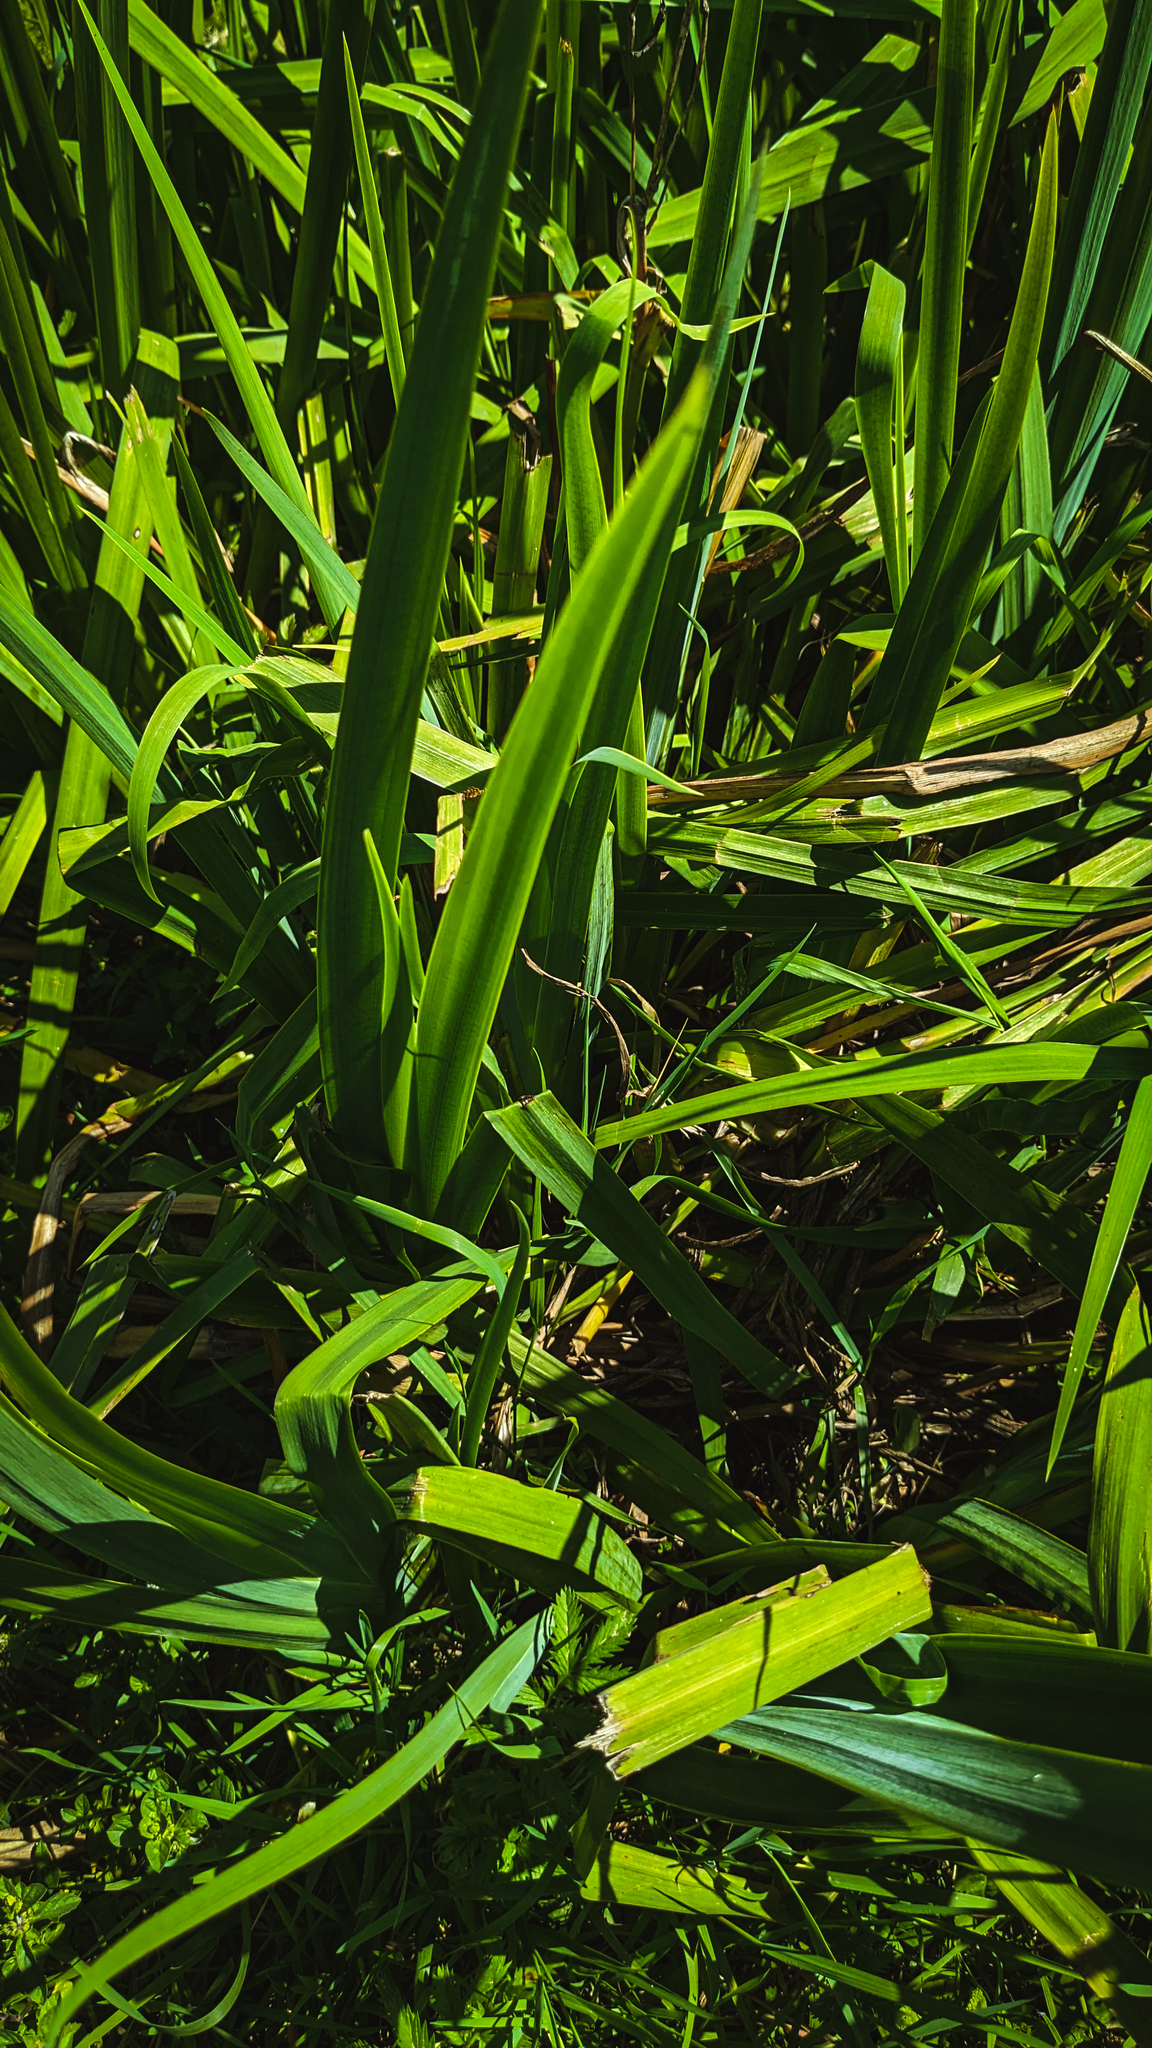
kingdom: Plantae
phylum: Tracheophyta
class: Liliopsida
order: Asparagales
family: Iridaceae
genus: Iris
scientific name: Iris pseudacorus
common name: Yellow flag
